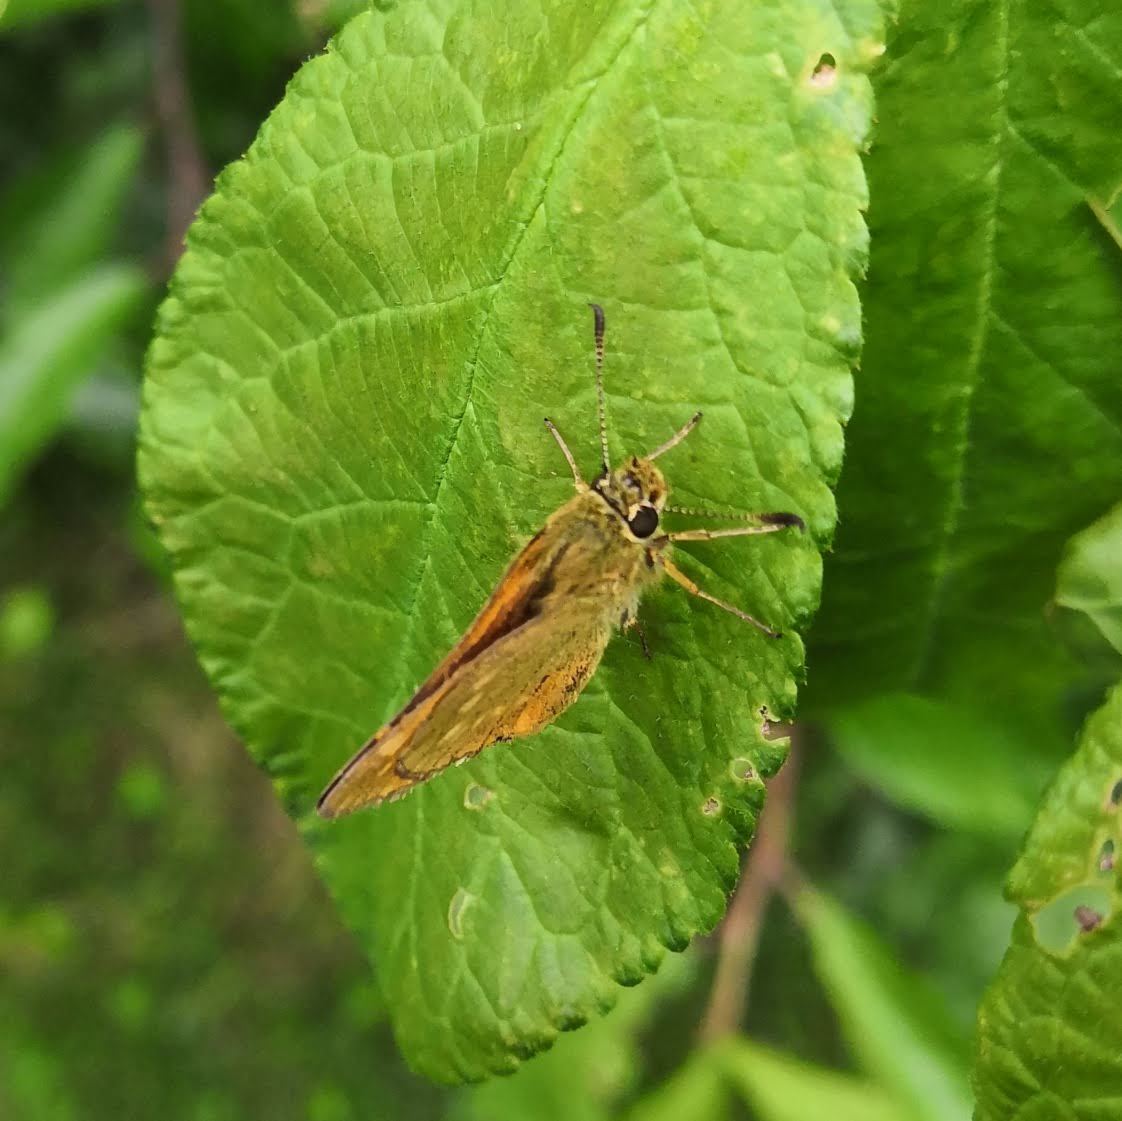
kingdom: Animalia
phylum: Arthropoda
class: Insecta
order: Lepidoptera
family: Hesperiidae
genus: Ochlodes
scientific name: Ochlodes venata
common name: Large skipper
